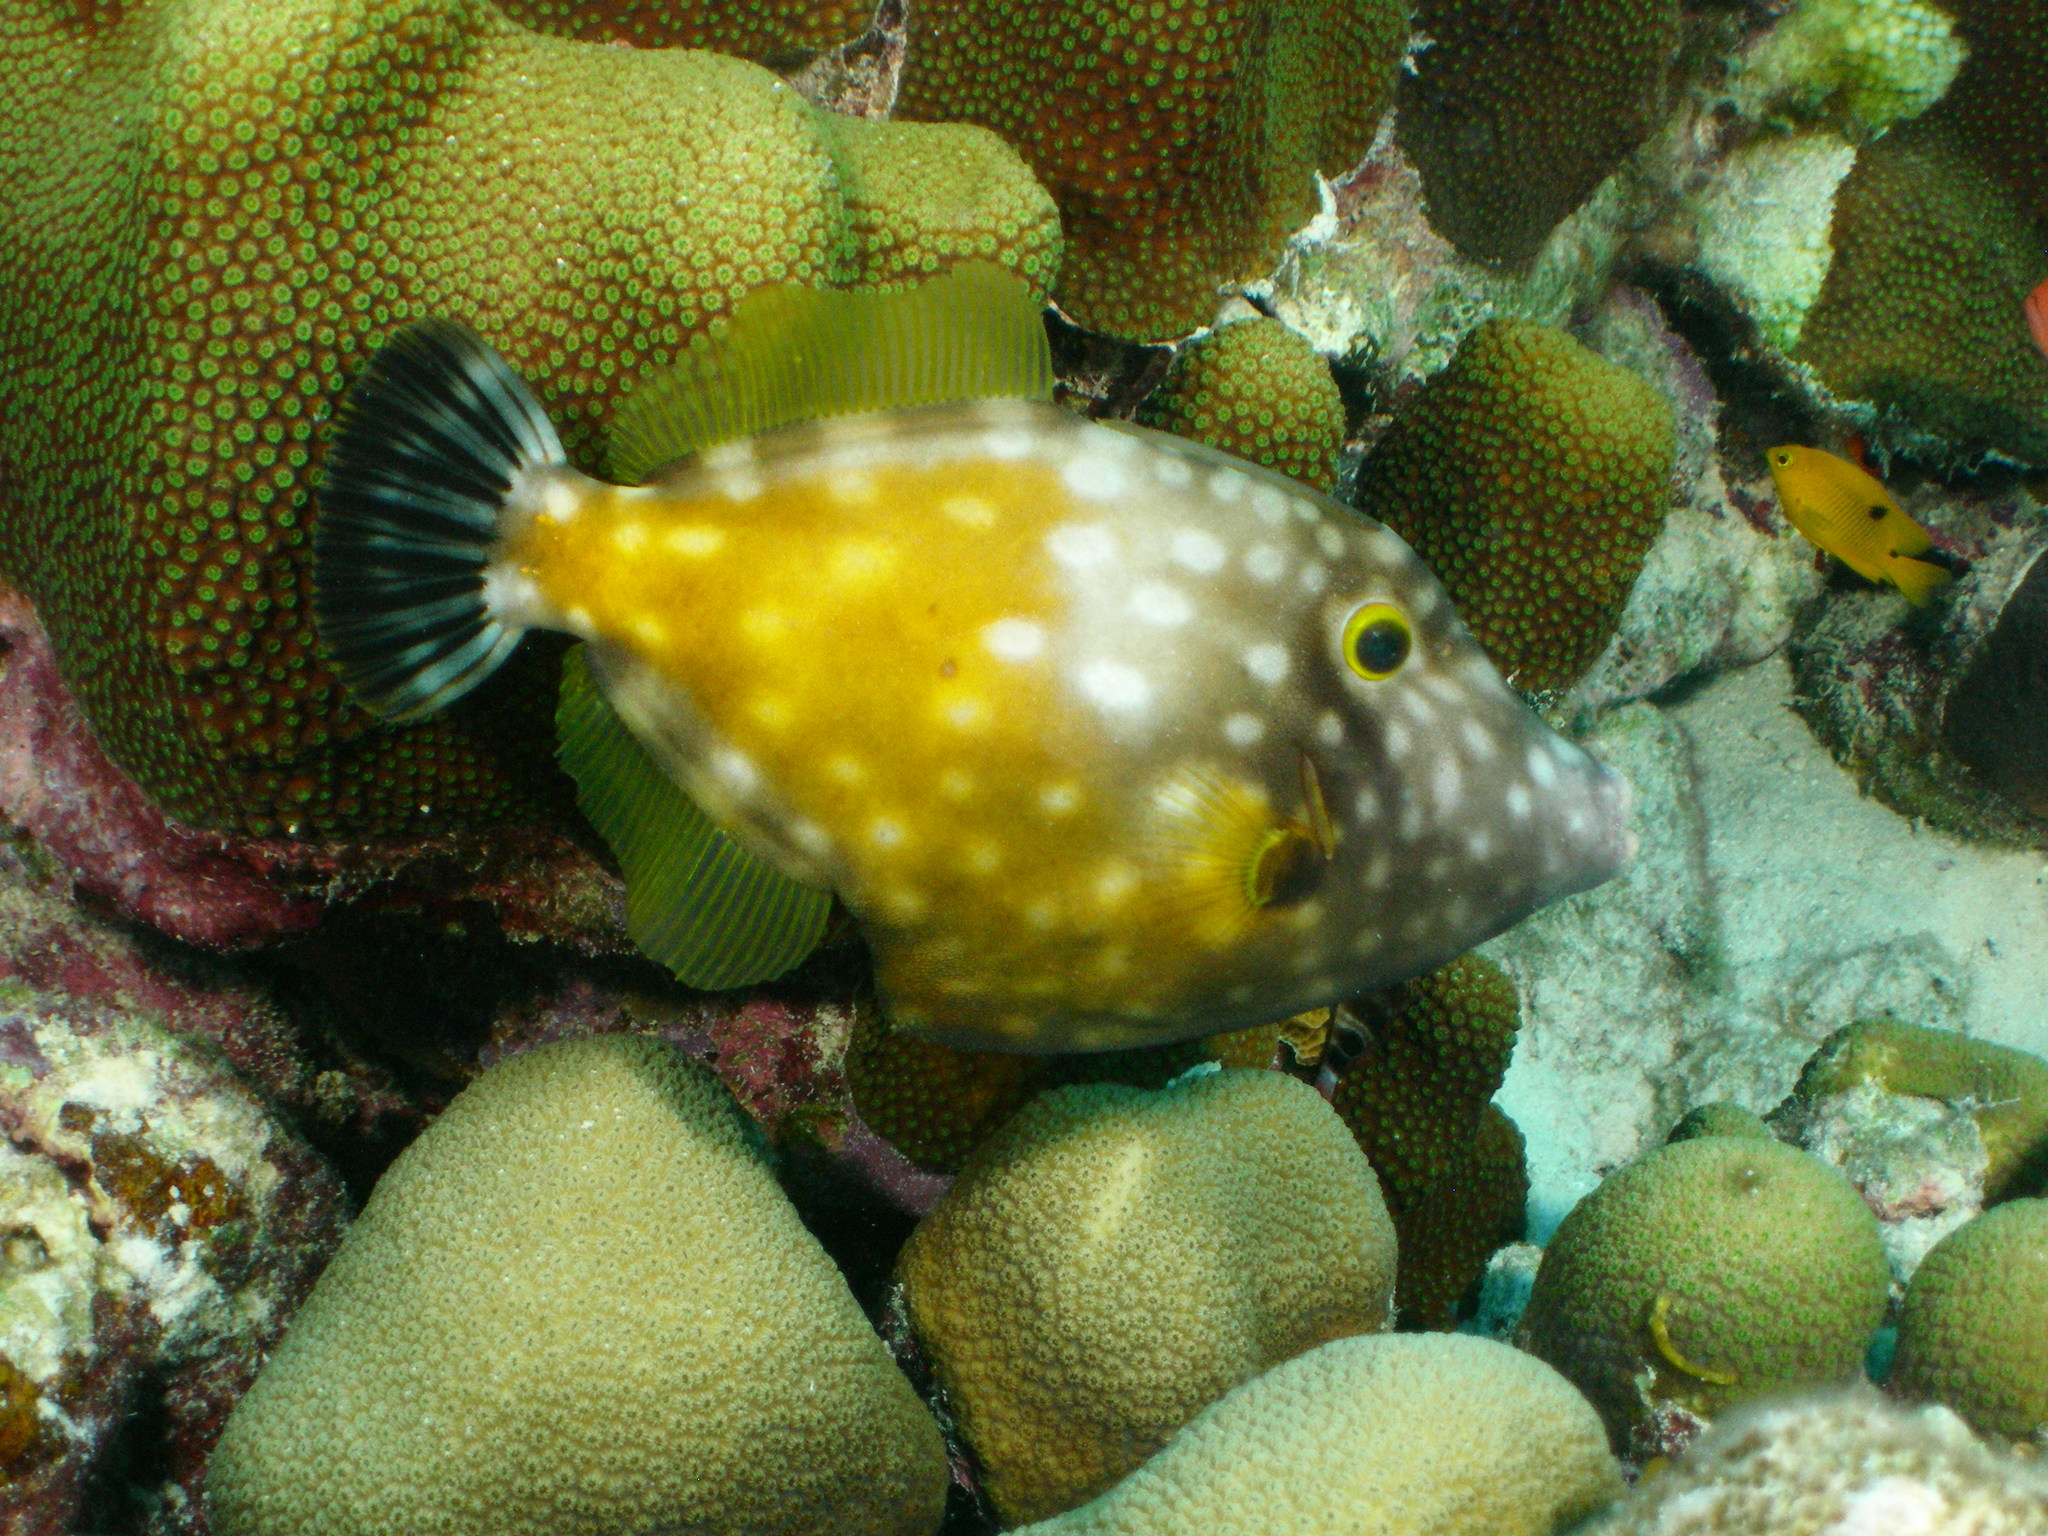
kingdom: Animalia
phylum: Chordata
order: Tetraodontiformes
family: Monacanthidae
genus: Cantherhines
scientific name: Cantherhines macrocerus
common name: Whitespotted filefish
